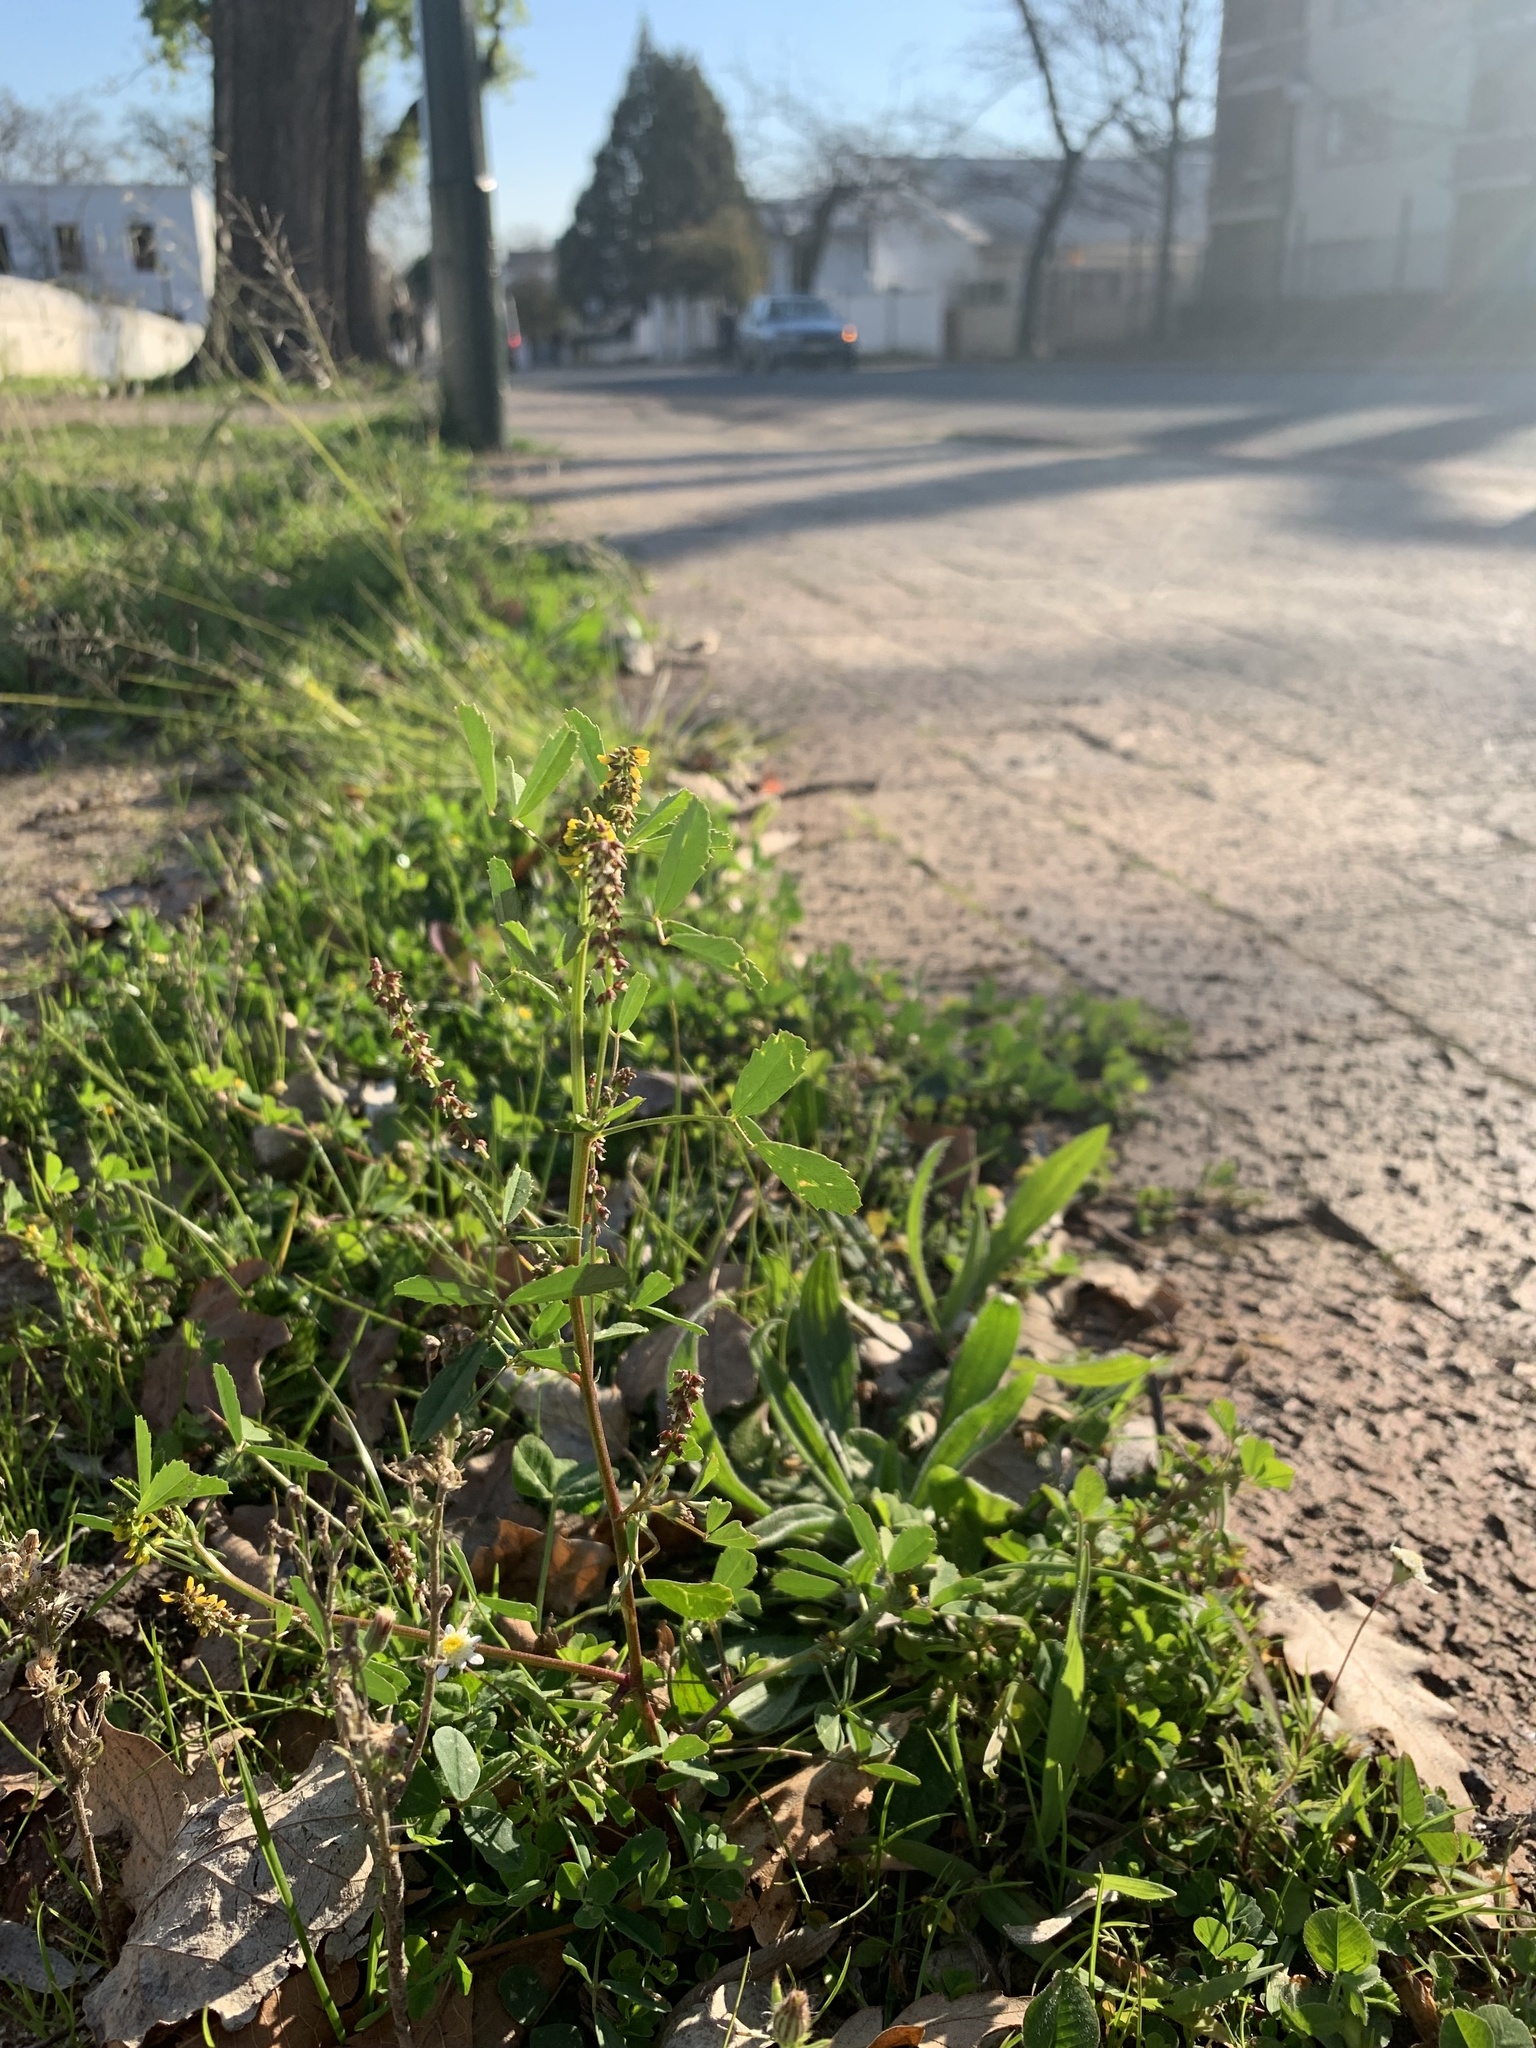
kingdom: Plantae
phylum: Tracheophyta
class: Magnoliopsida
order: Fabales
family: Fabaceae
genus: Melilotus
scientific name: Melilotus indicus
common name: Small melilot
